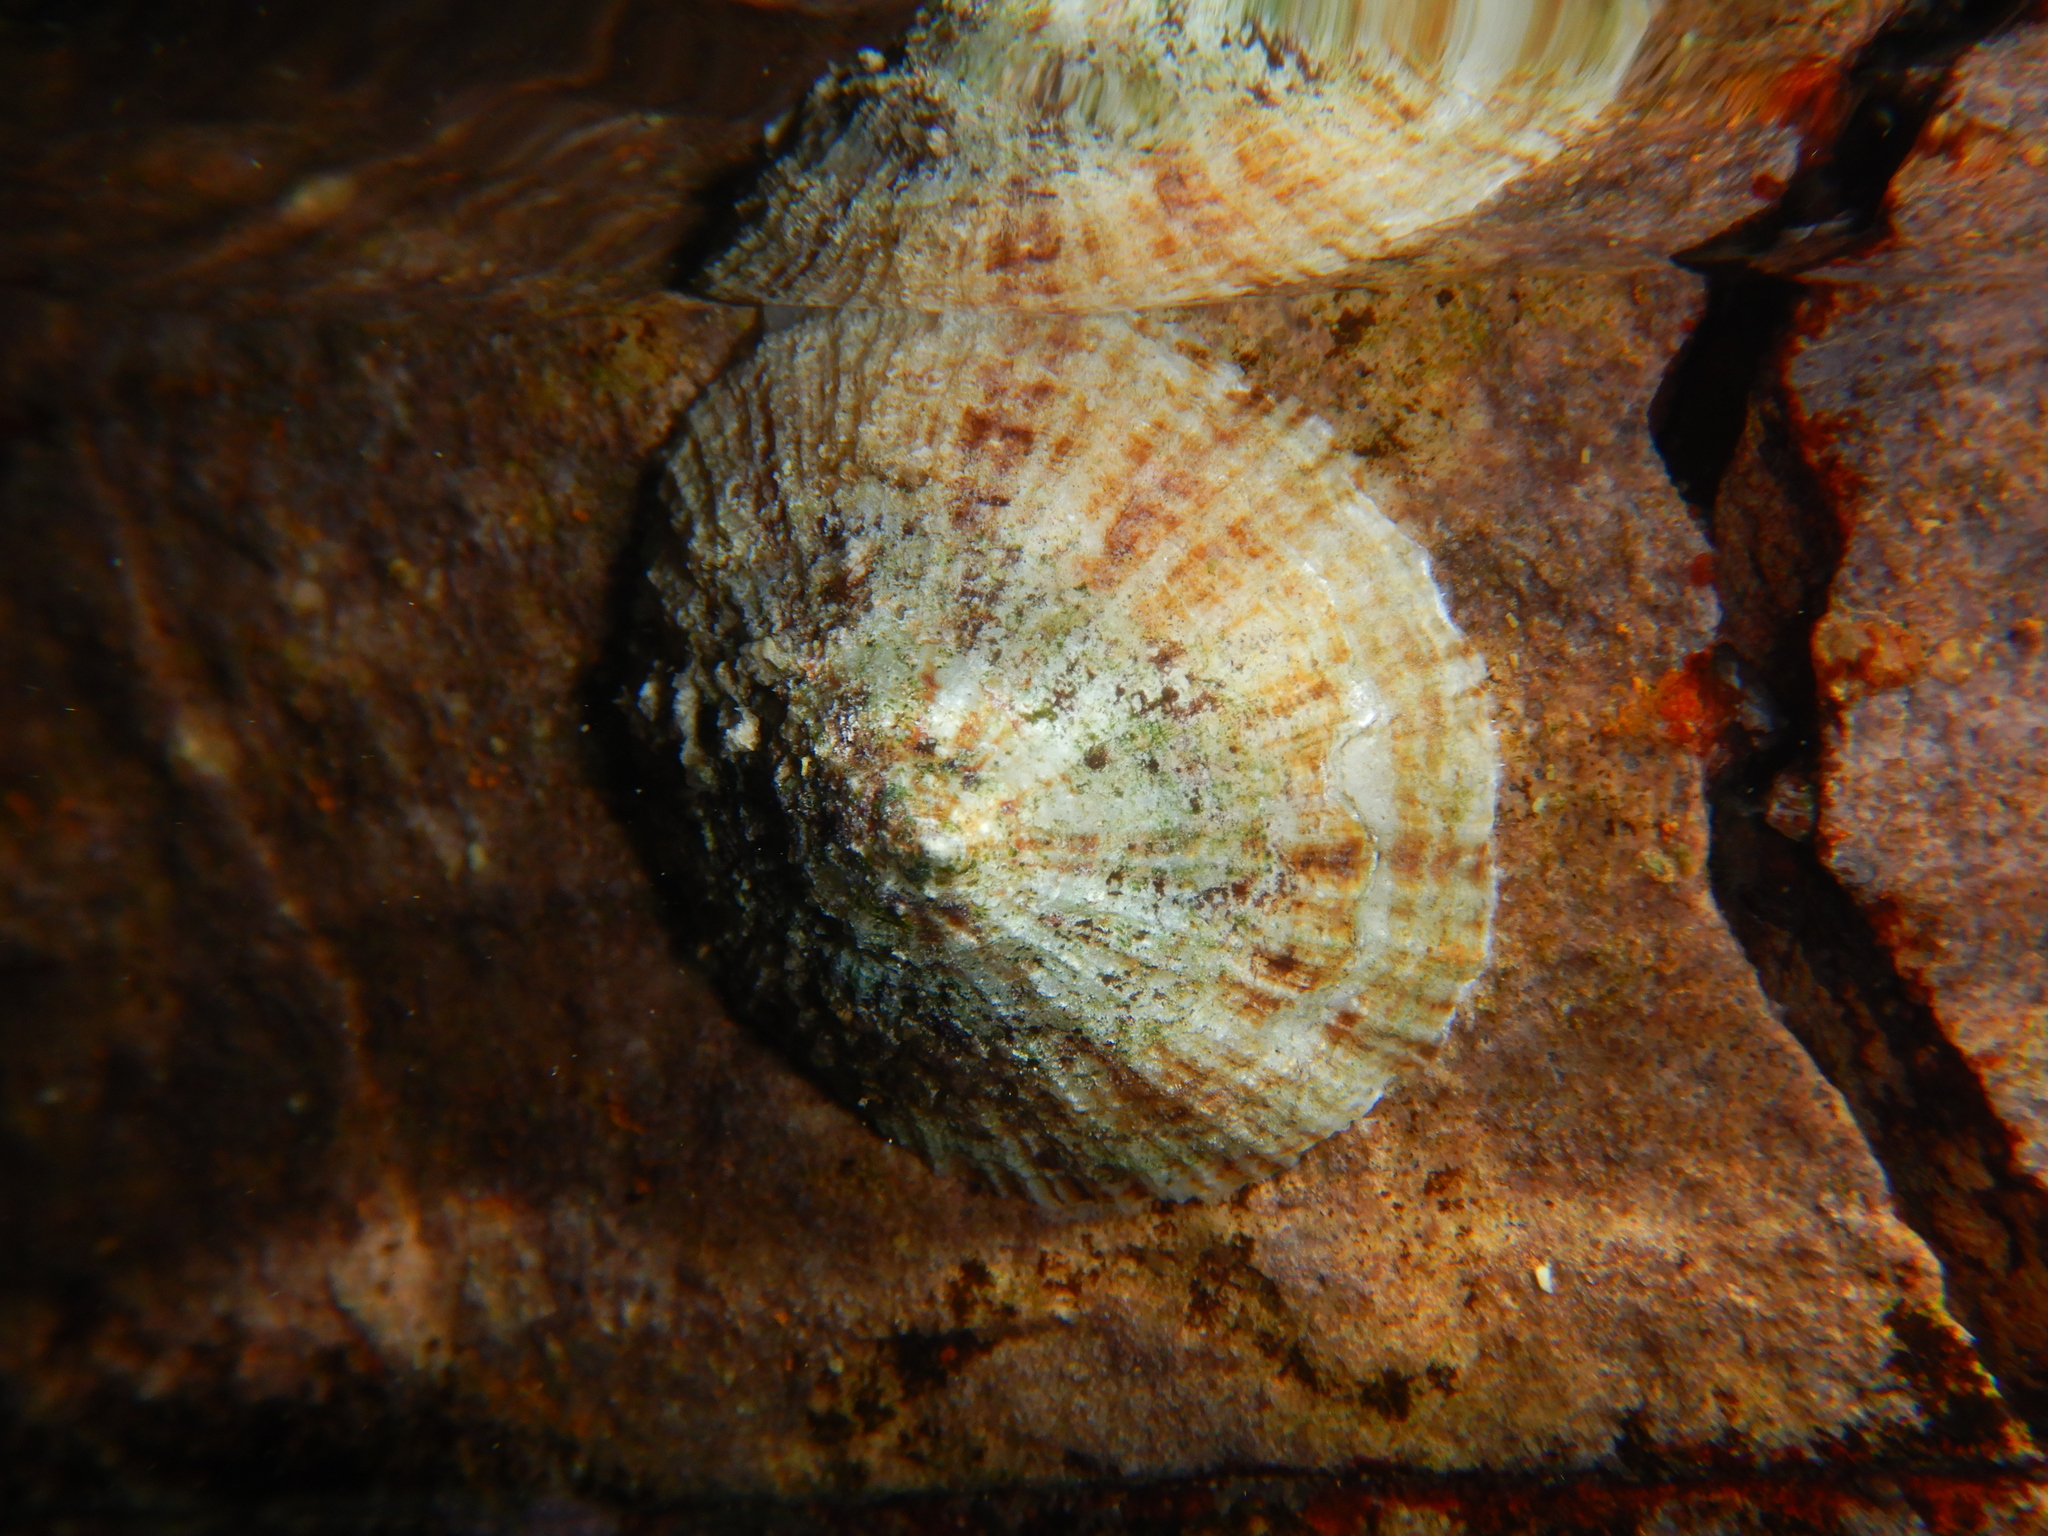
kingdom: Animalia
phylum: Mollusca
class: Gastropoda
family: Patellidae
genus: Patella
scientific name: Patella caerulea
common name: Mediterranean limpet
